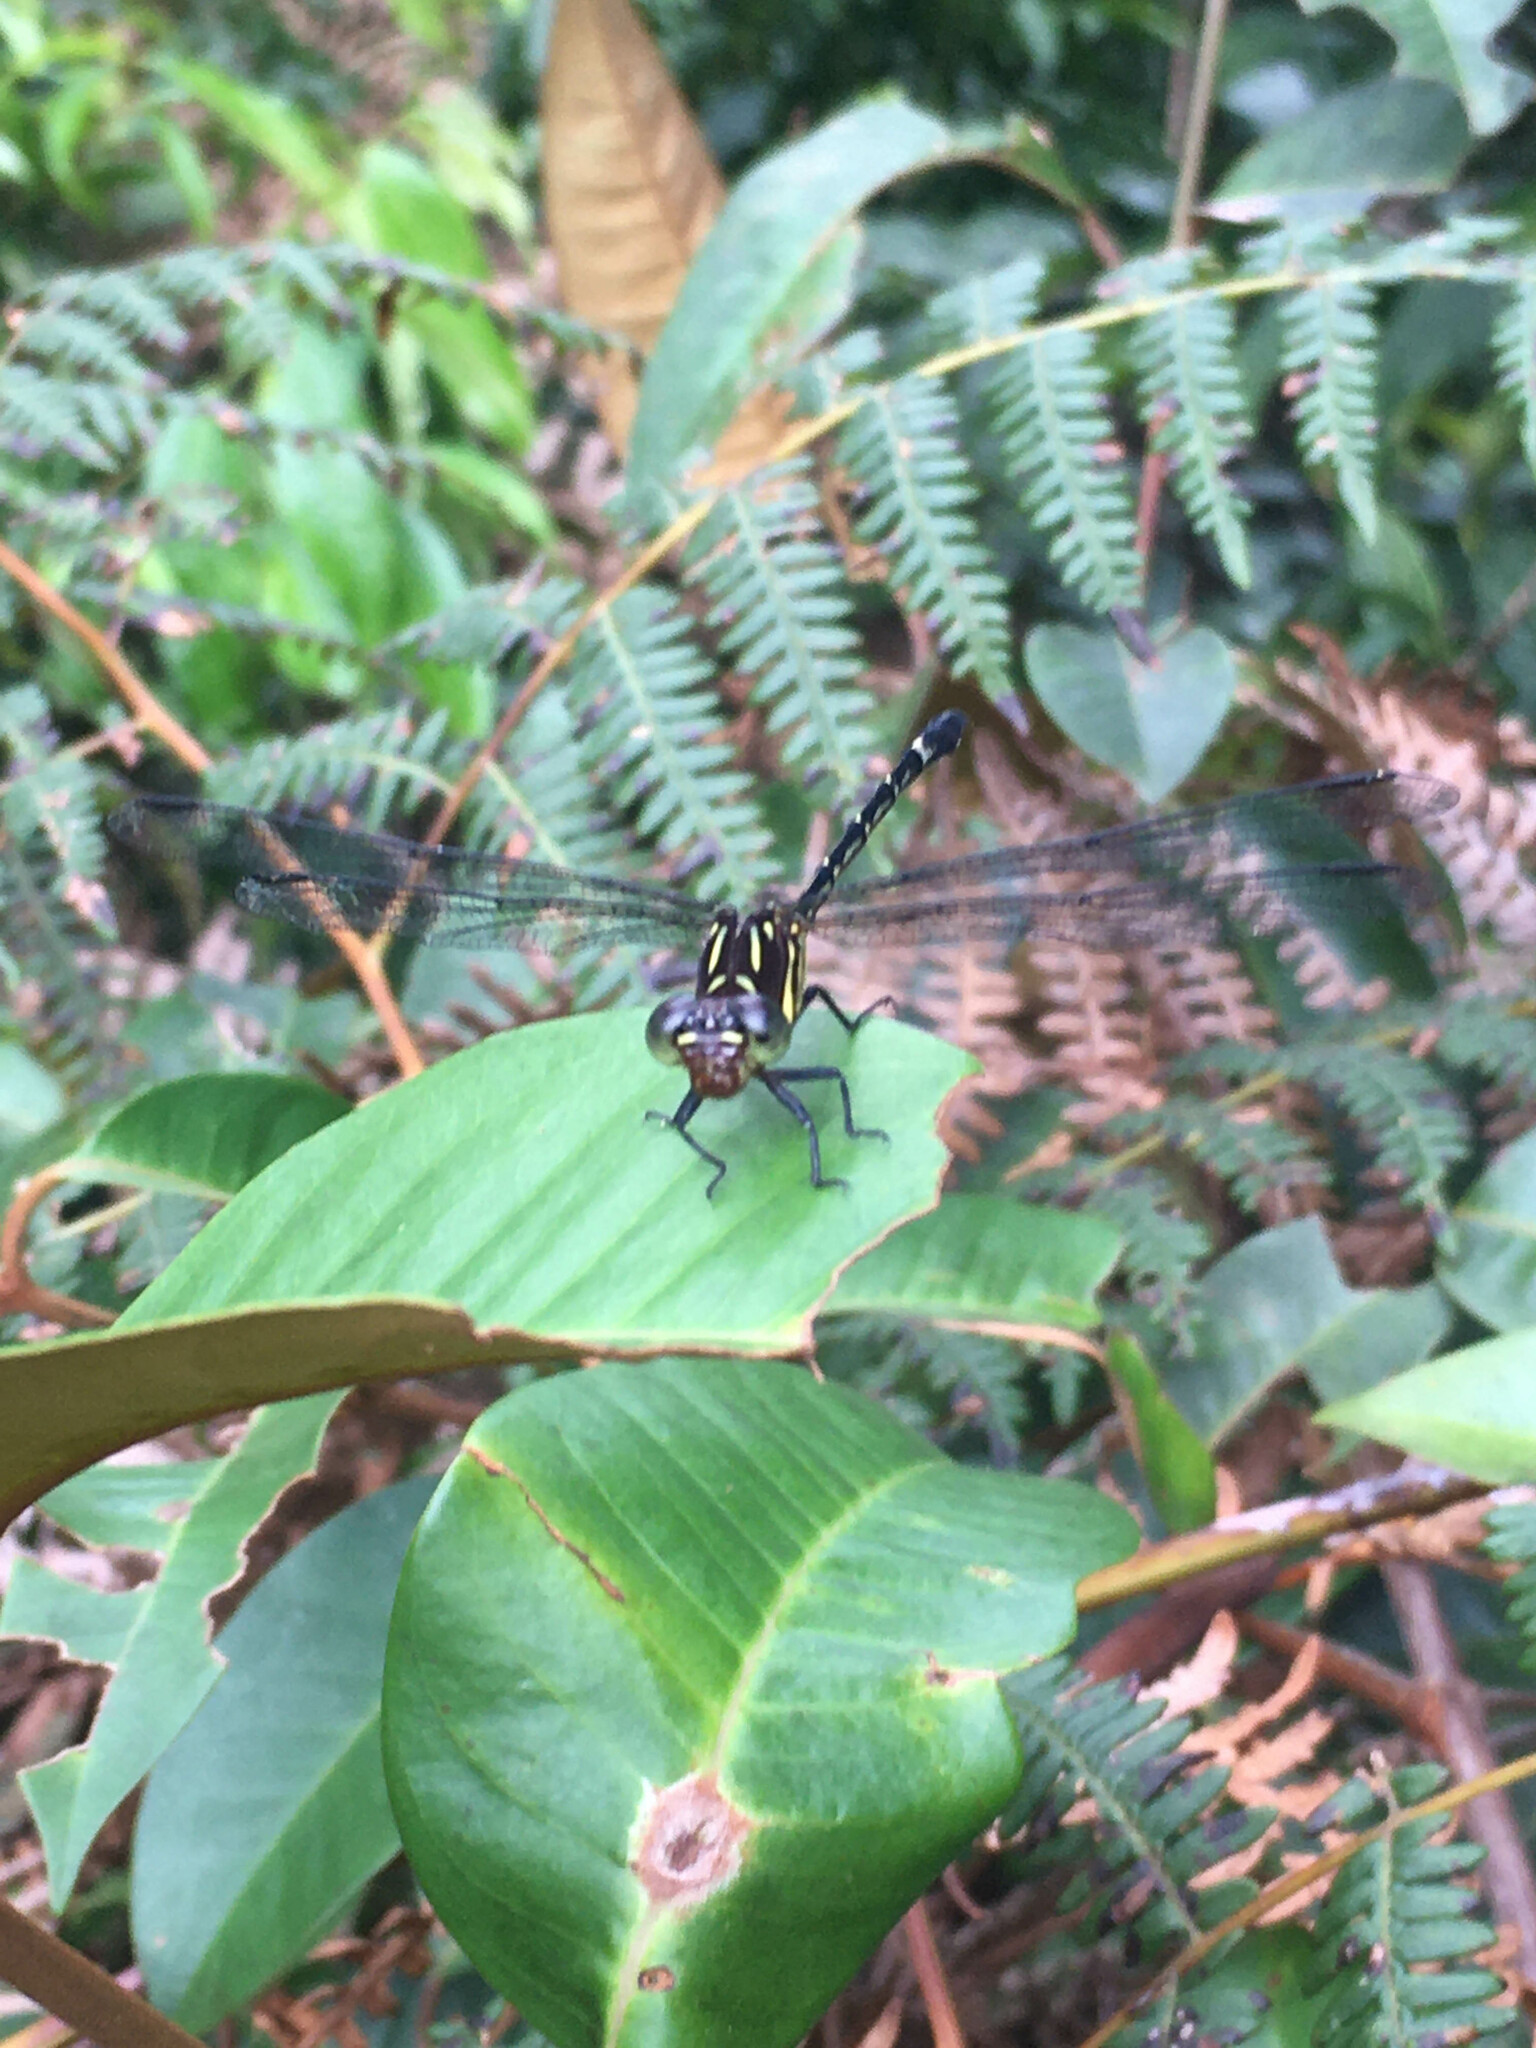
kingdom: Animalia
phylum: Arthropoda
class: Insecta
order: Odonata
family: Gomphidae
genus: Epigomphus
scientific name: Epigomphus paludosus
